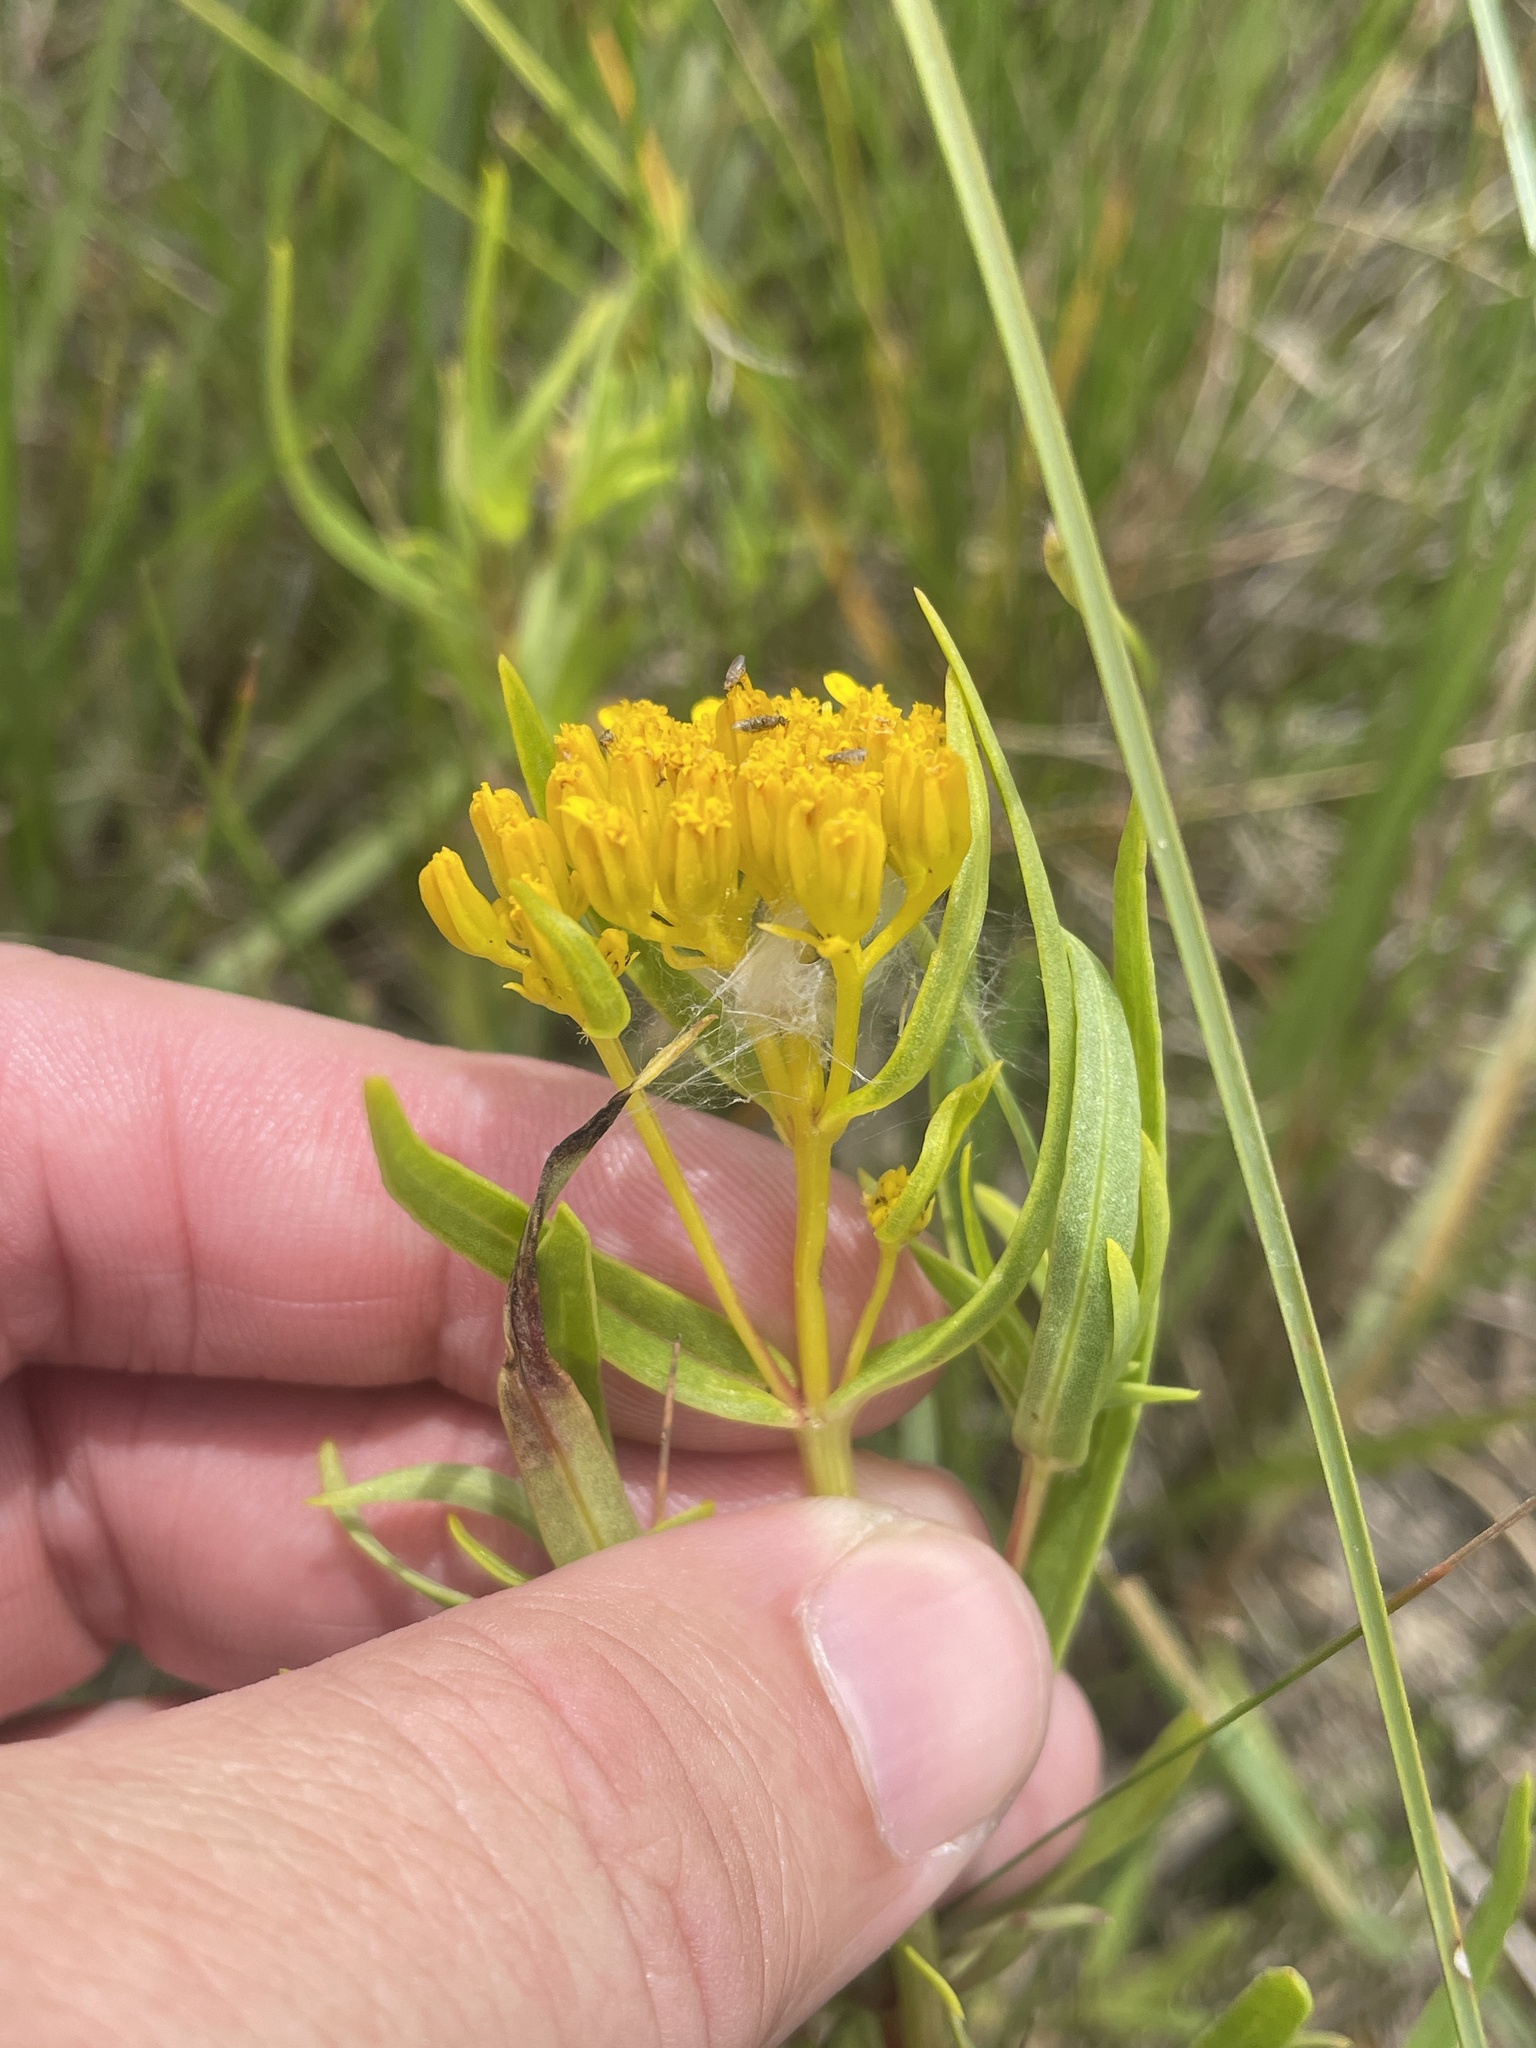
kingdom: Plantae
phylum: Tracheophyta
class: Magnoliopsida
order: Asterales
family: Asteraceae
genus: Flaveria
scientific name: Flaveria brownii
